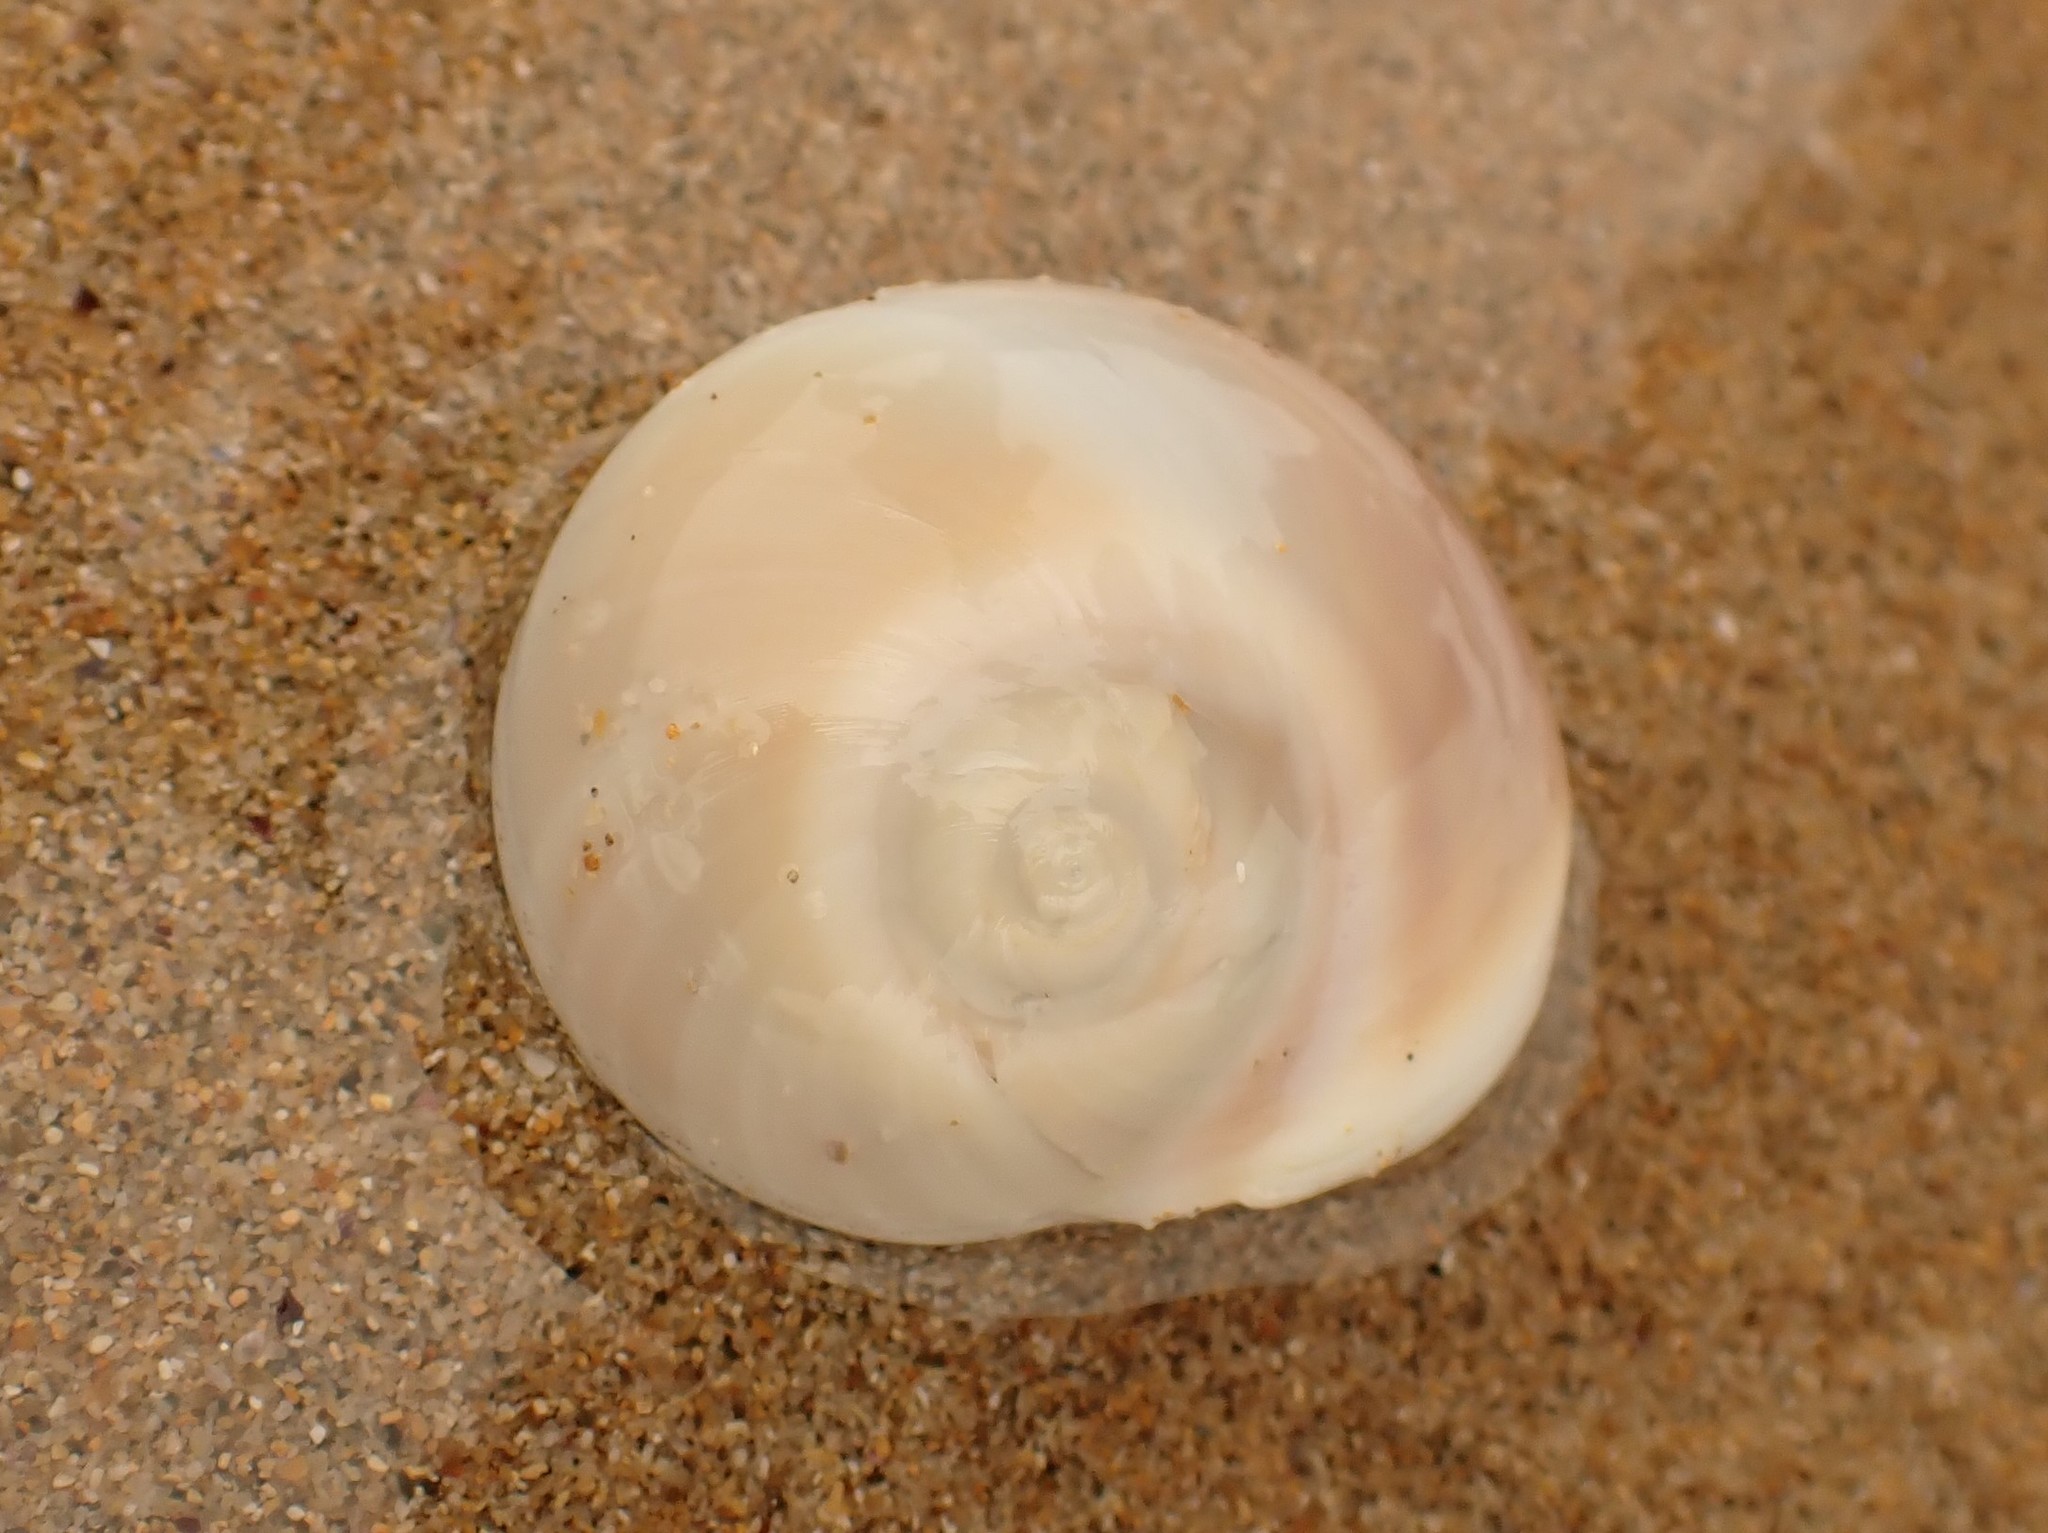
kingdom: Animalia
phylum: Mollusca
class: Gastropoda
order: Littorinimorpha
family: Naticidae
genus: Conuber
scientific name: Conuber incei
